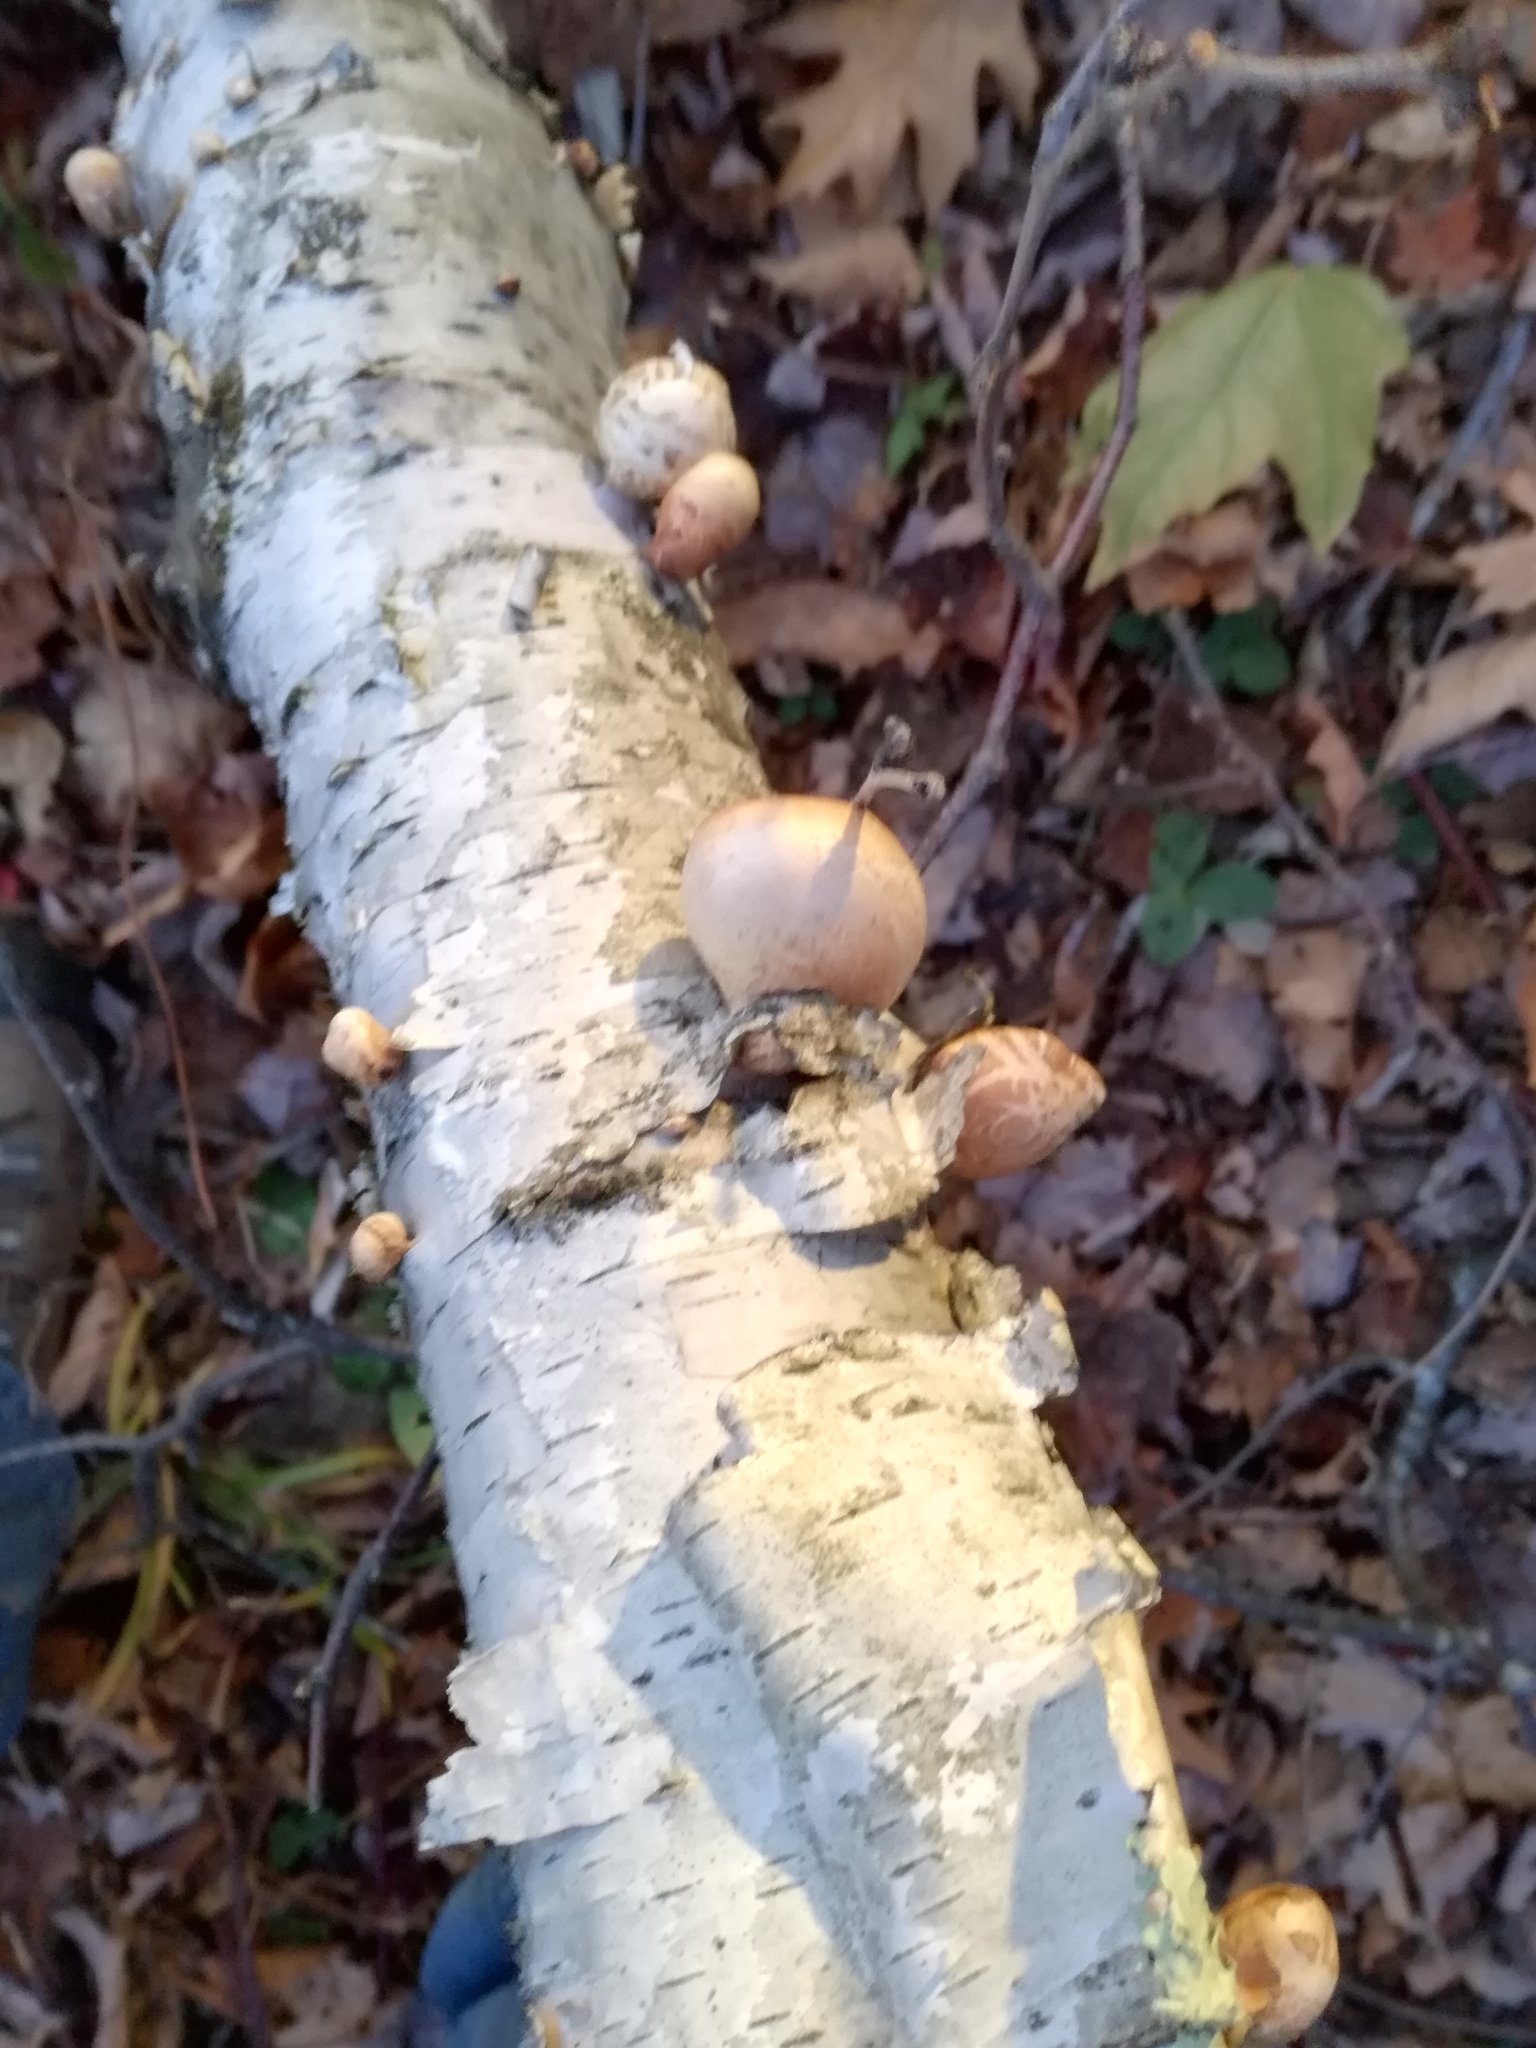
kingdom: Fungi
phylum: Basidiomycota
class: Agaricomycetes
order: Polyporales
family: Fomitopsidaceae
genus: Fomitopsis
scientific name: Fomitopsis betulina
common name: Birch polypore
